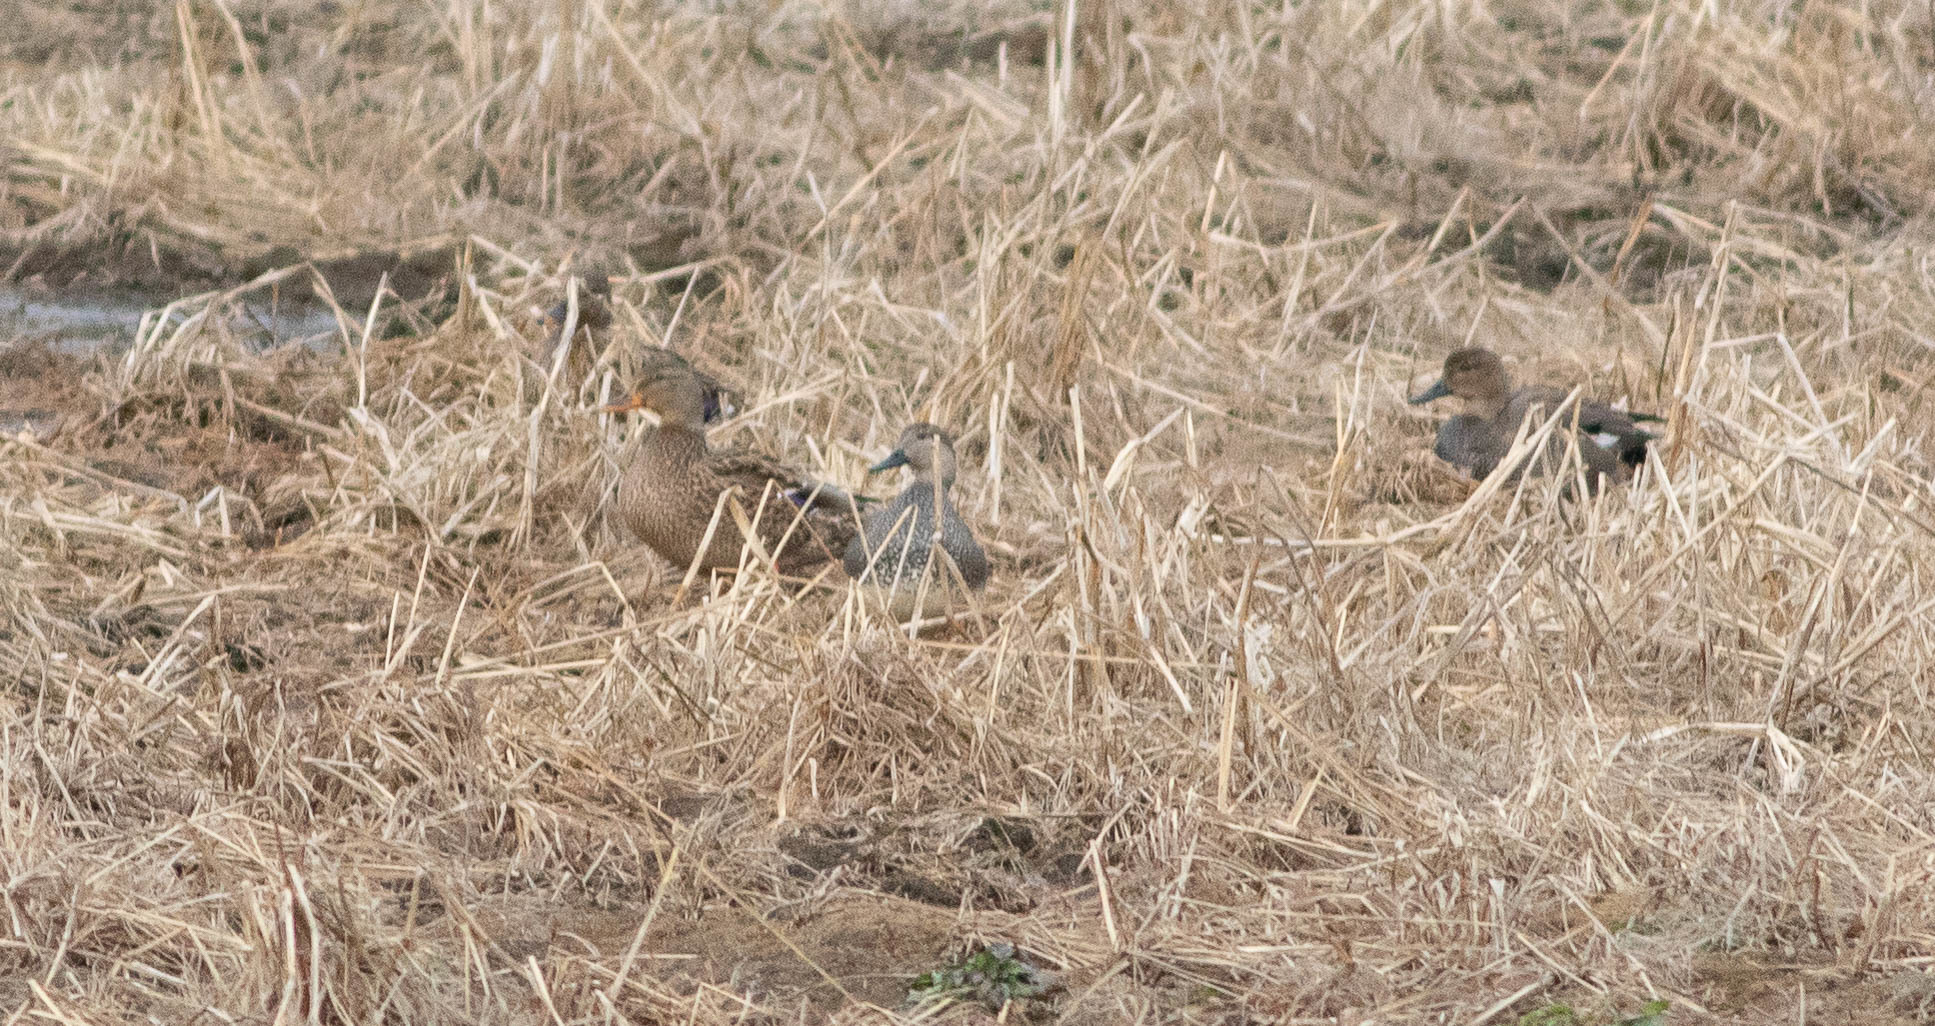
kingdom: Animalia
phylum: Chordata
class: Aves
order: Anseriformes
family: Anatidae
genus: Mareca
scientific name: Mareca strepera
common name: Gadwall
